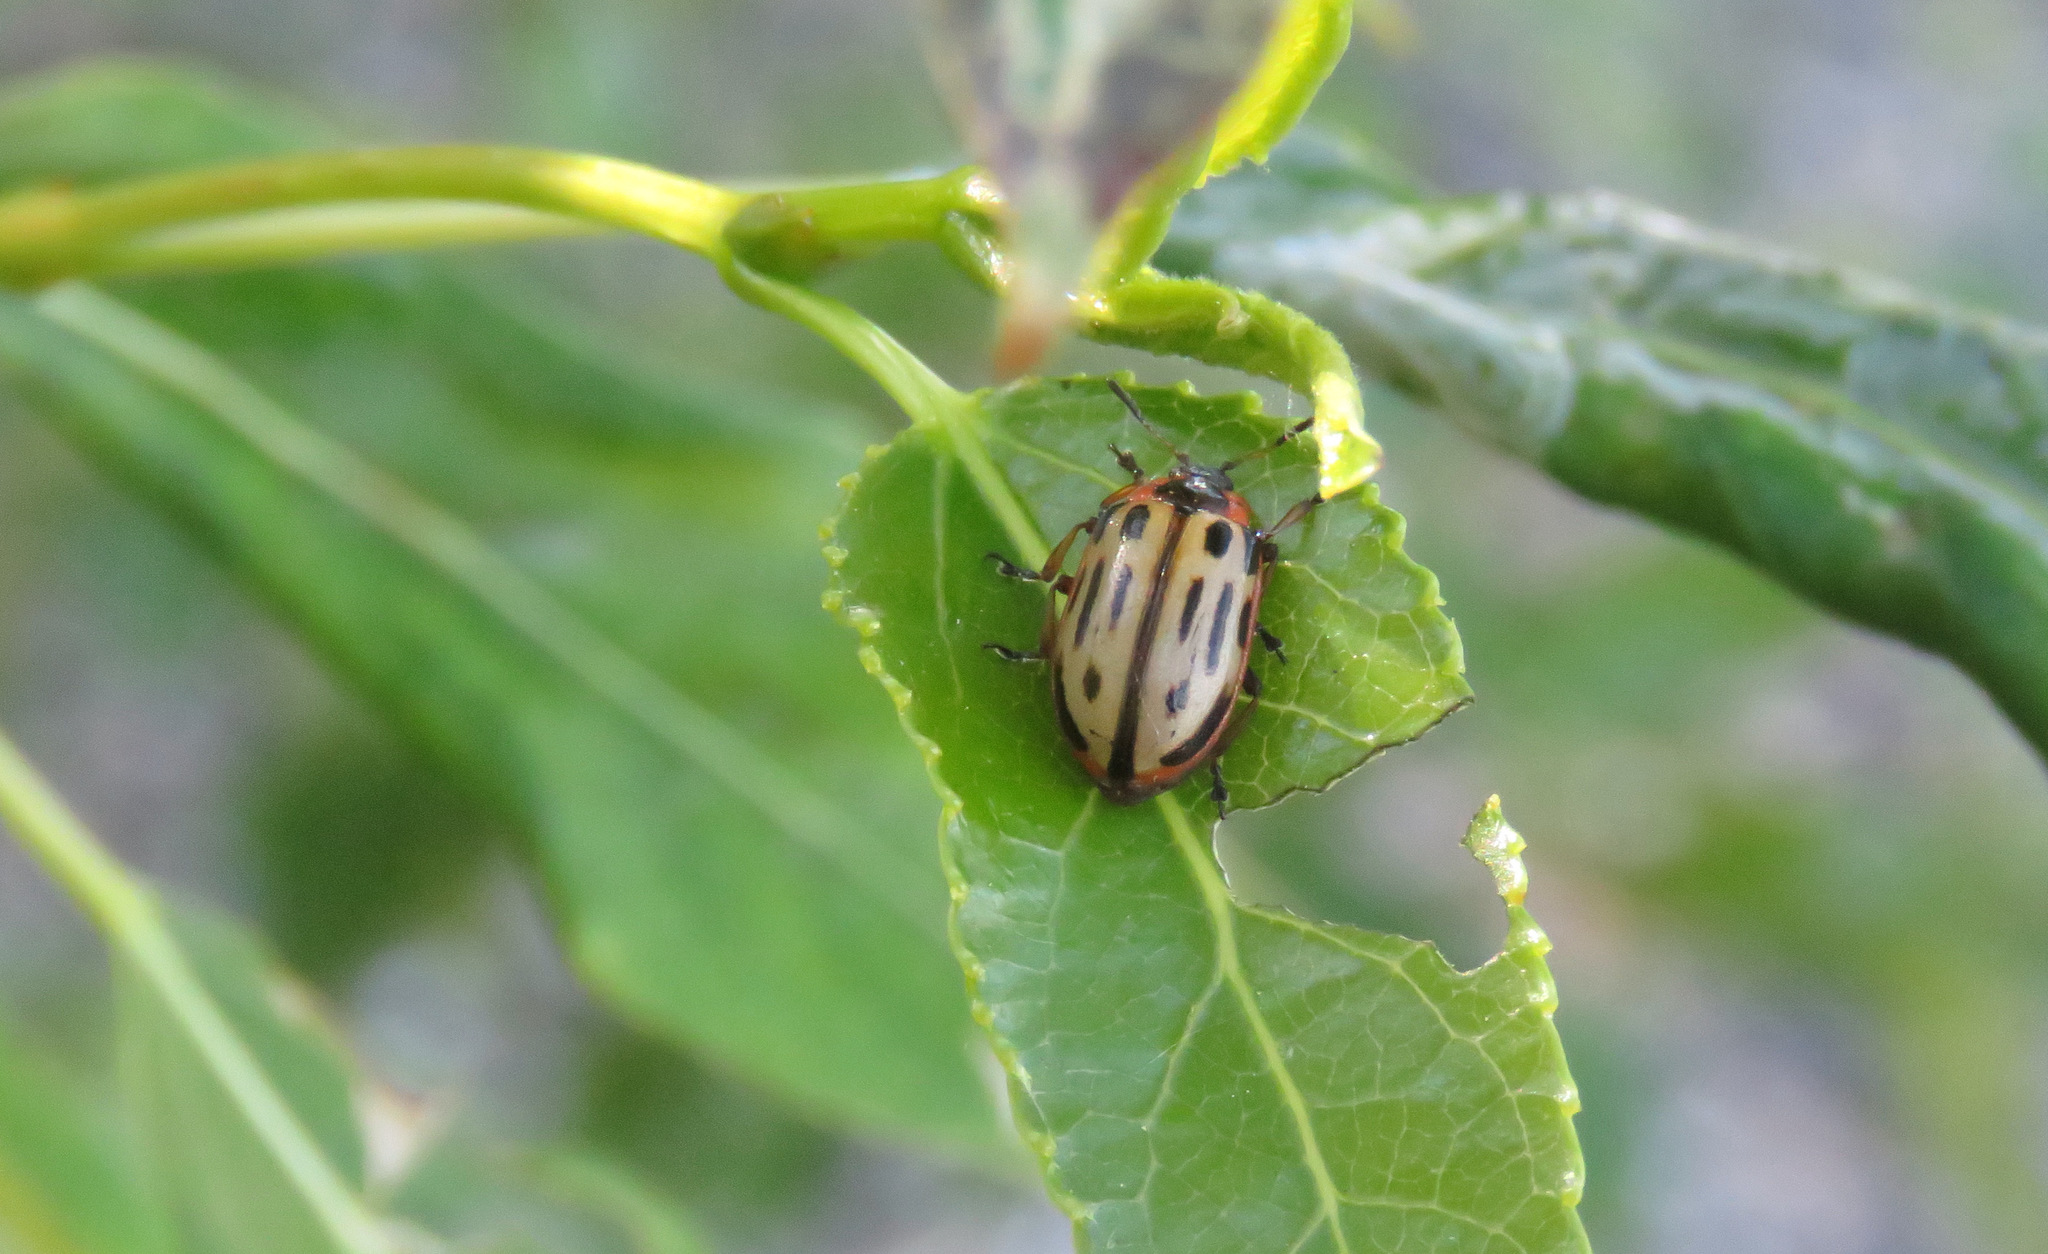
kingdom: Animalia
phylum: Arthropoda
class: Insecta
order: Coleoptera
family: Chrysomelidae
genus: Aethiopocassis
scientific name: Aethiopocassis scripta
